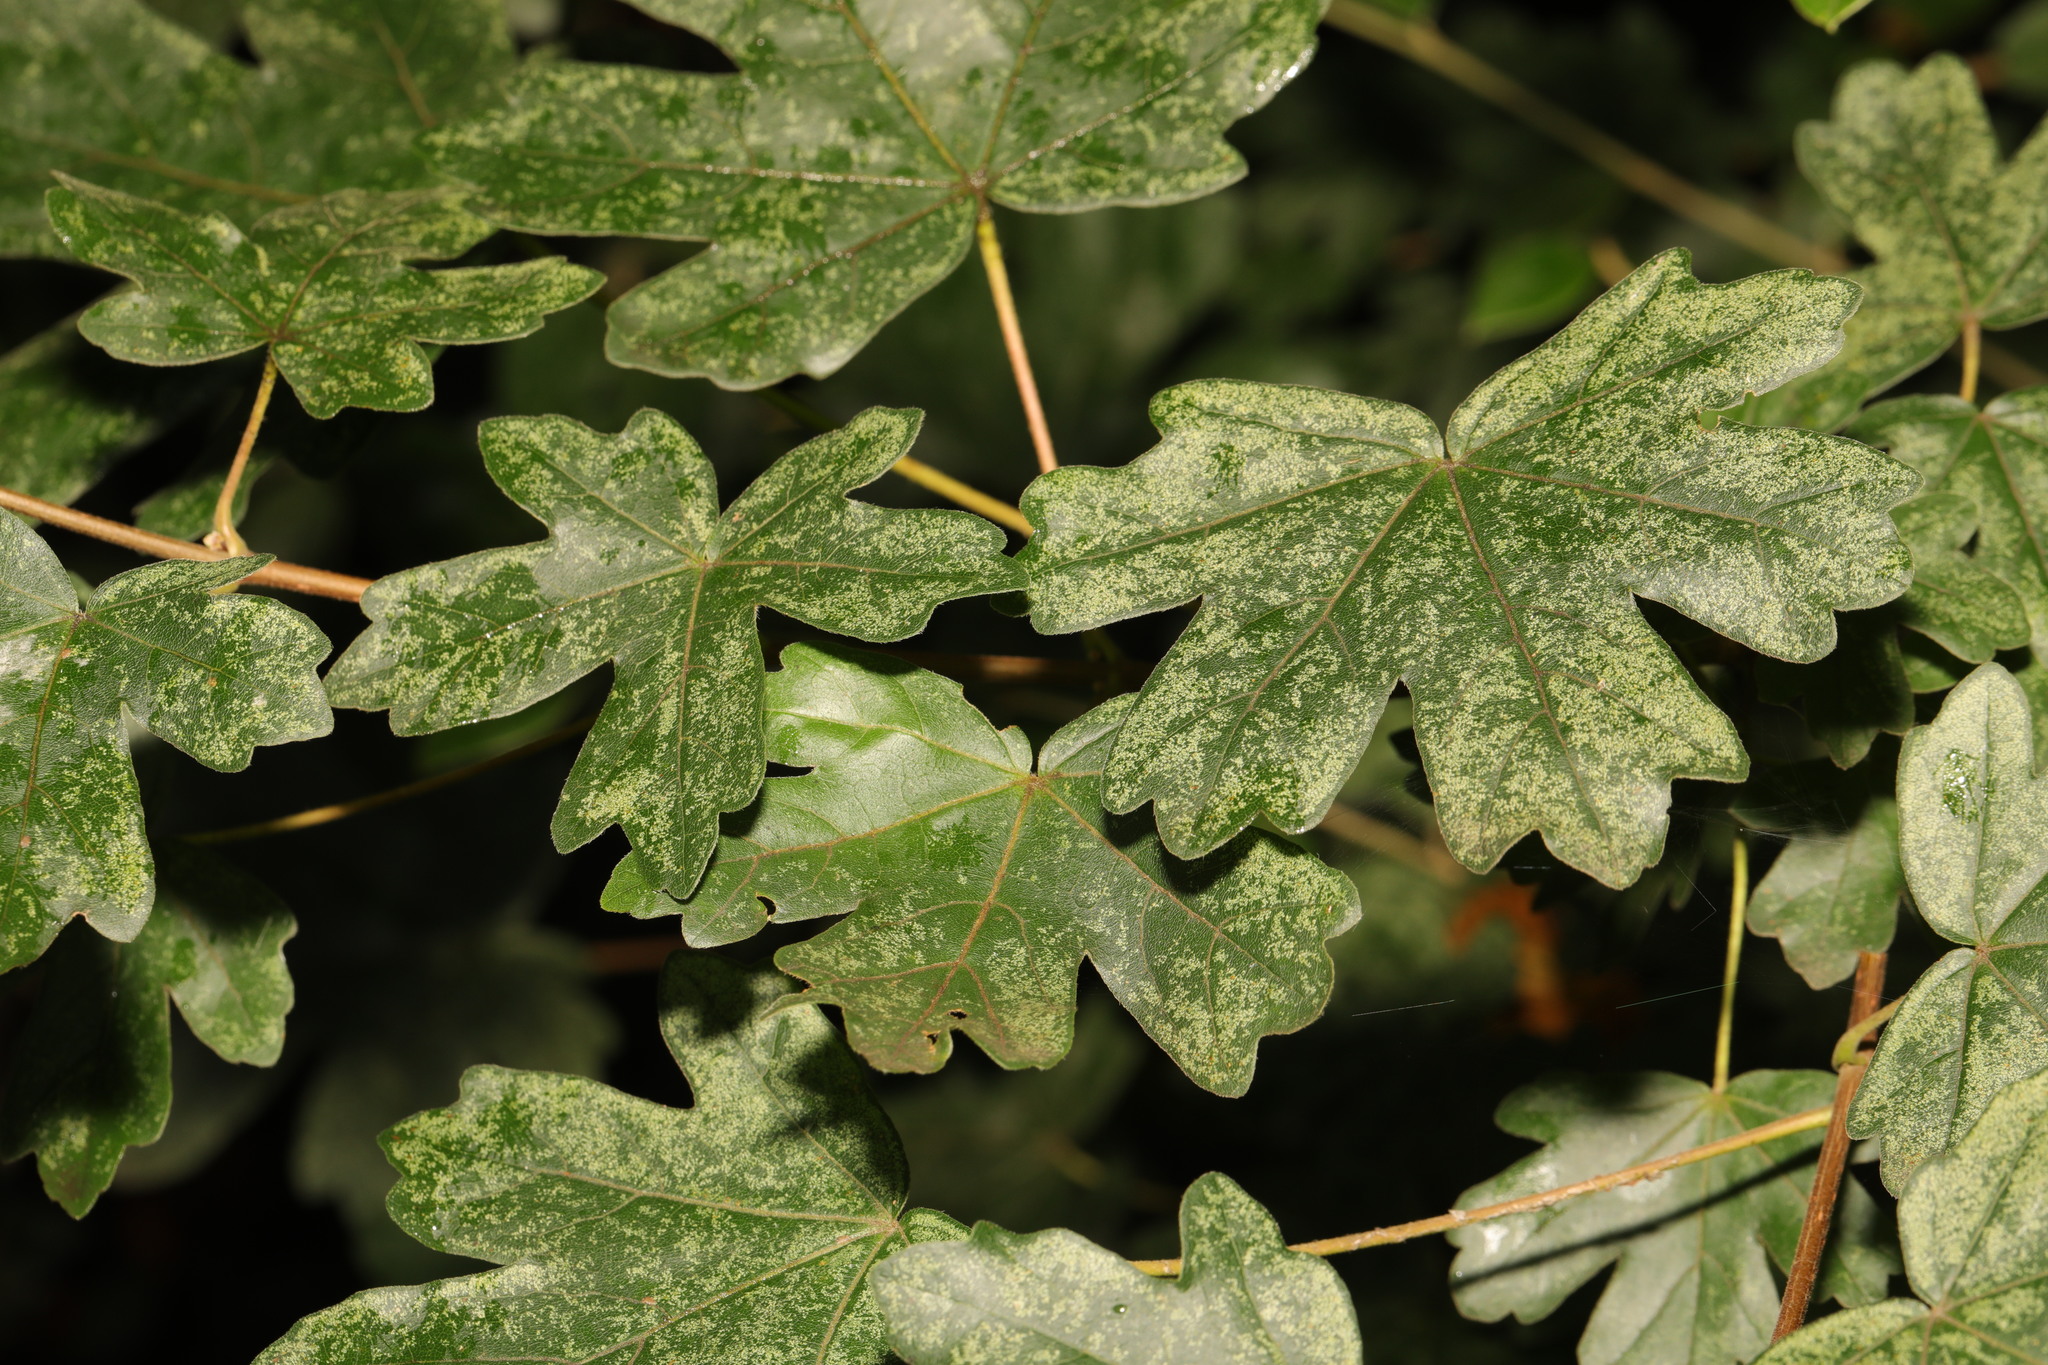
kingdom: Plantae
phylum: Tracheophyta
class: Magnoliopsida
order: Sapindales
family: Sapindaceae
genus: Acer
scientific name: Acer campestre
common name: Field maple
